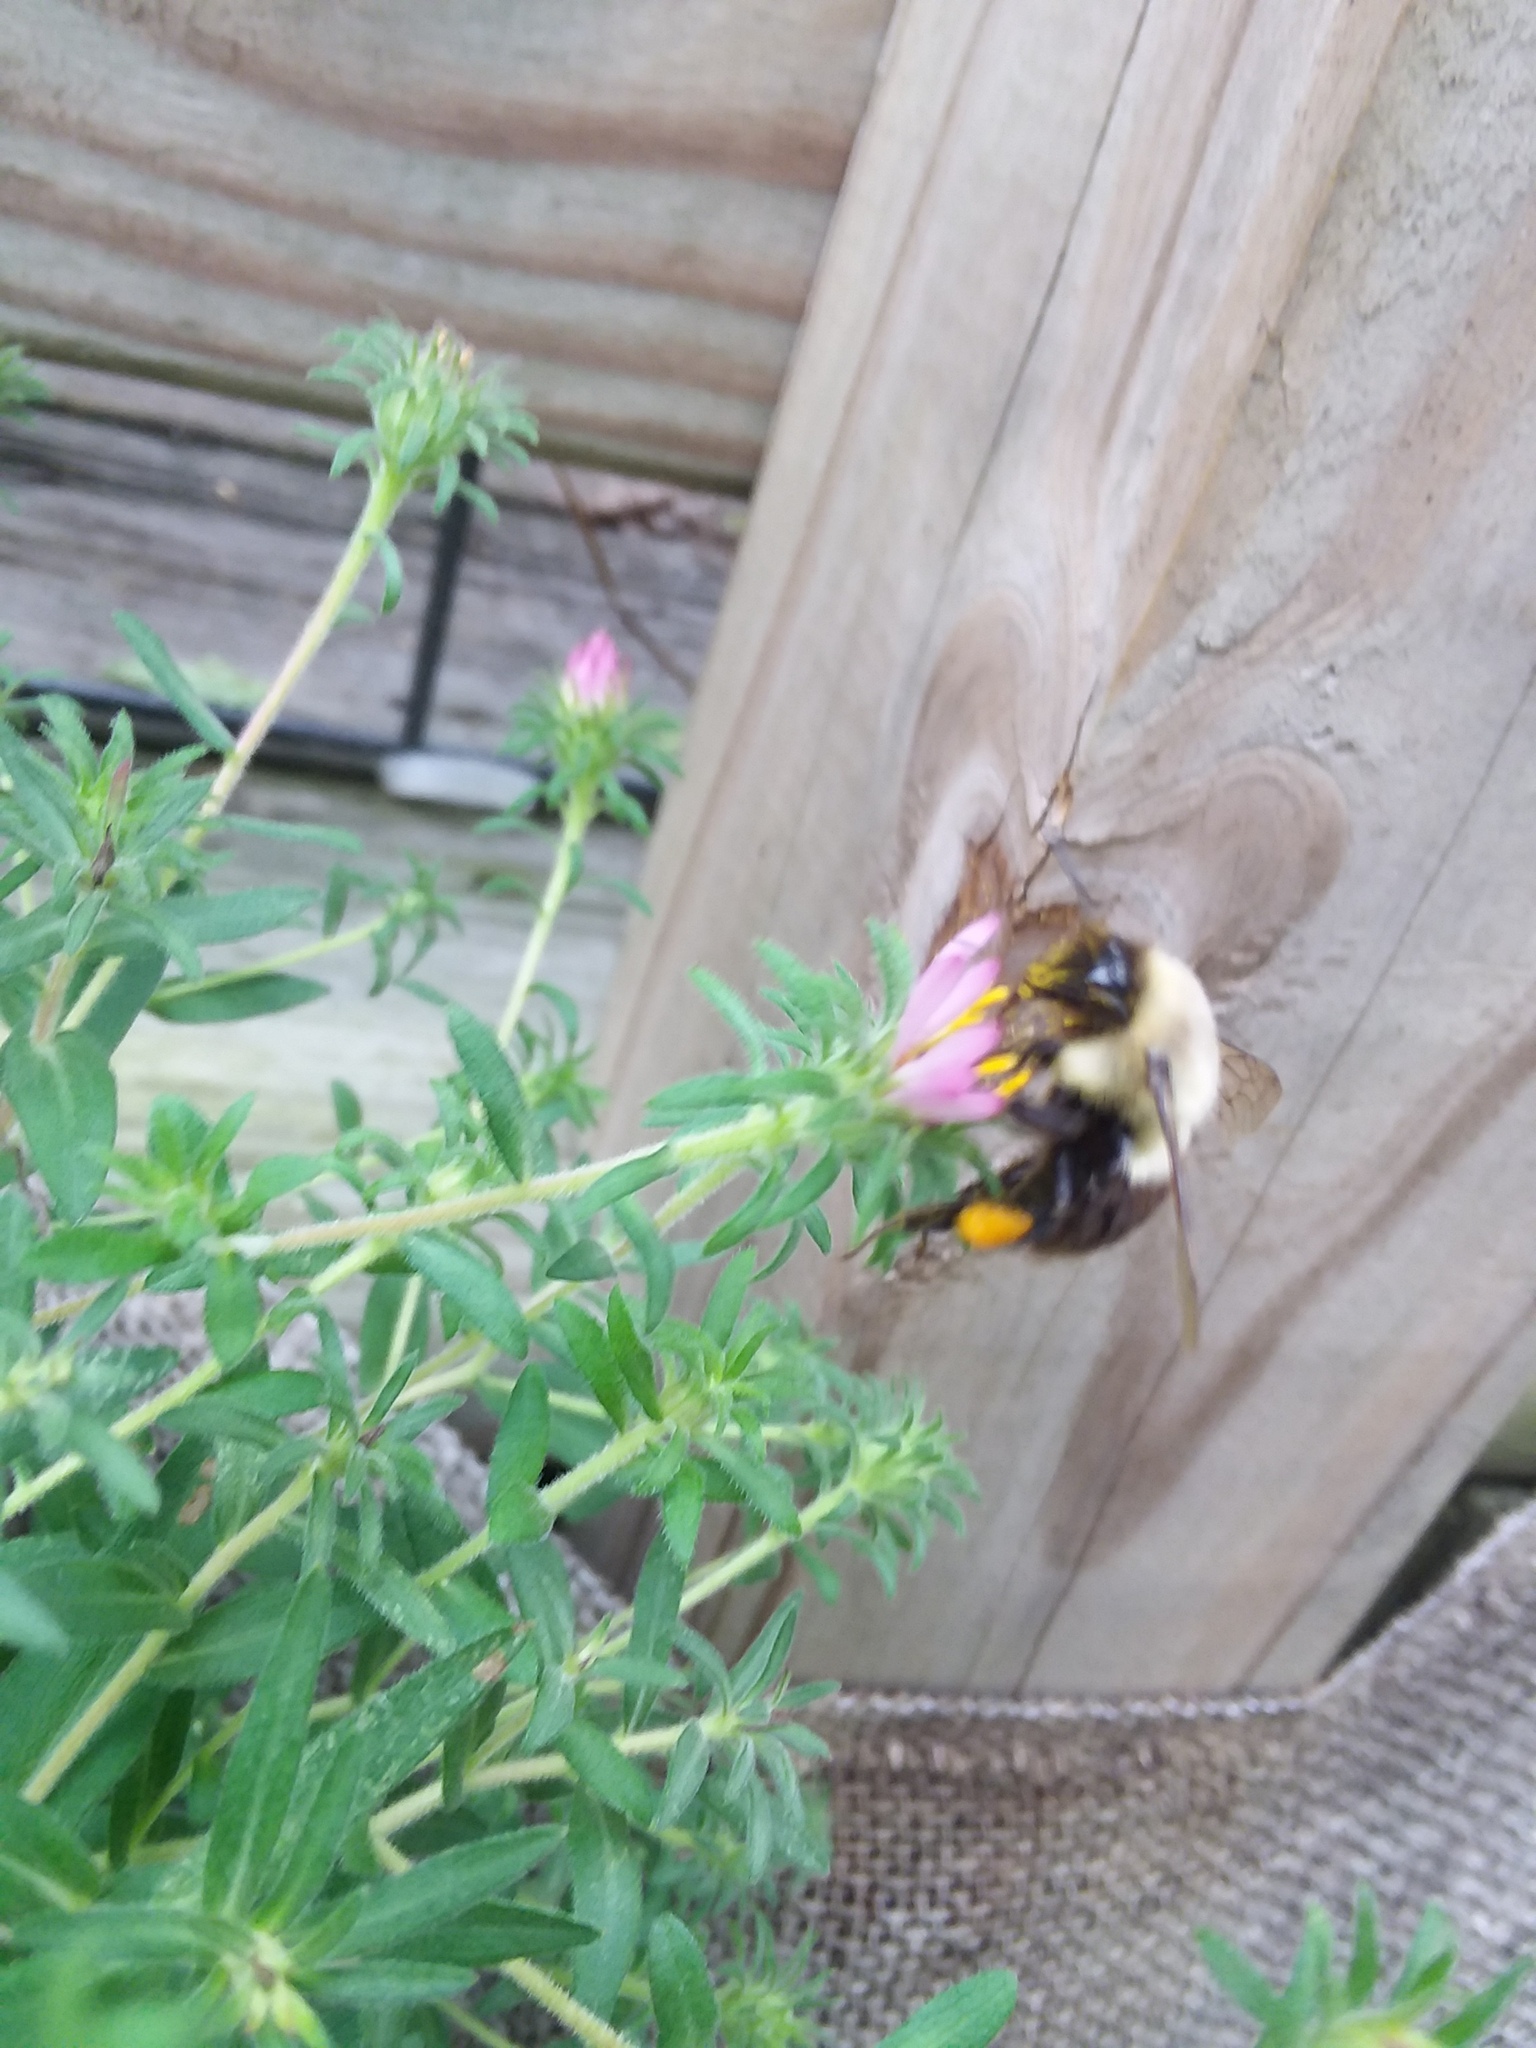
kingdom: Animalia
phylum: Arthropoda
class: Insecta
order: Hymenoptera
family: Apidae
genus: Bombus
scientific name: Bombus impatiens
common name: Common eastern bumble bee
